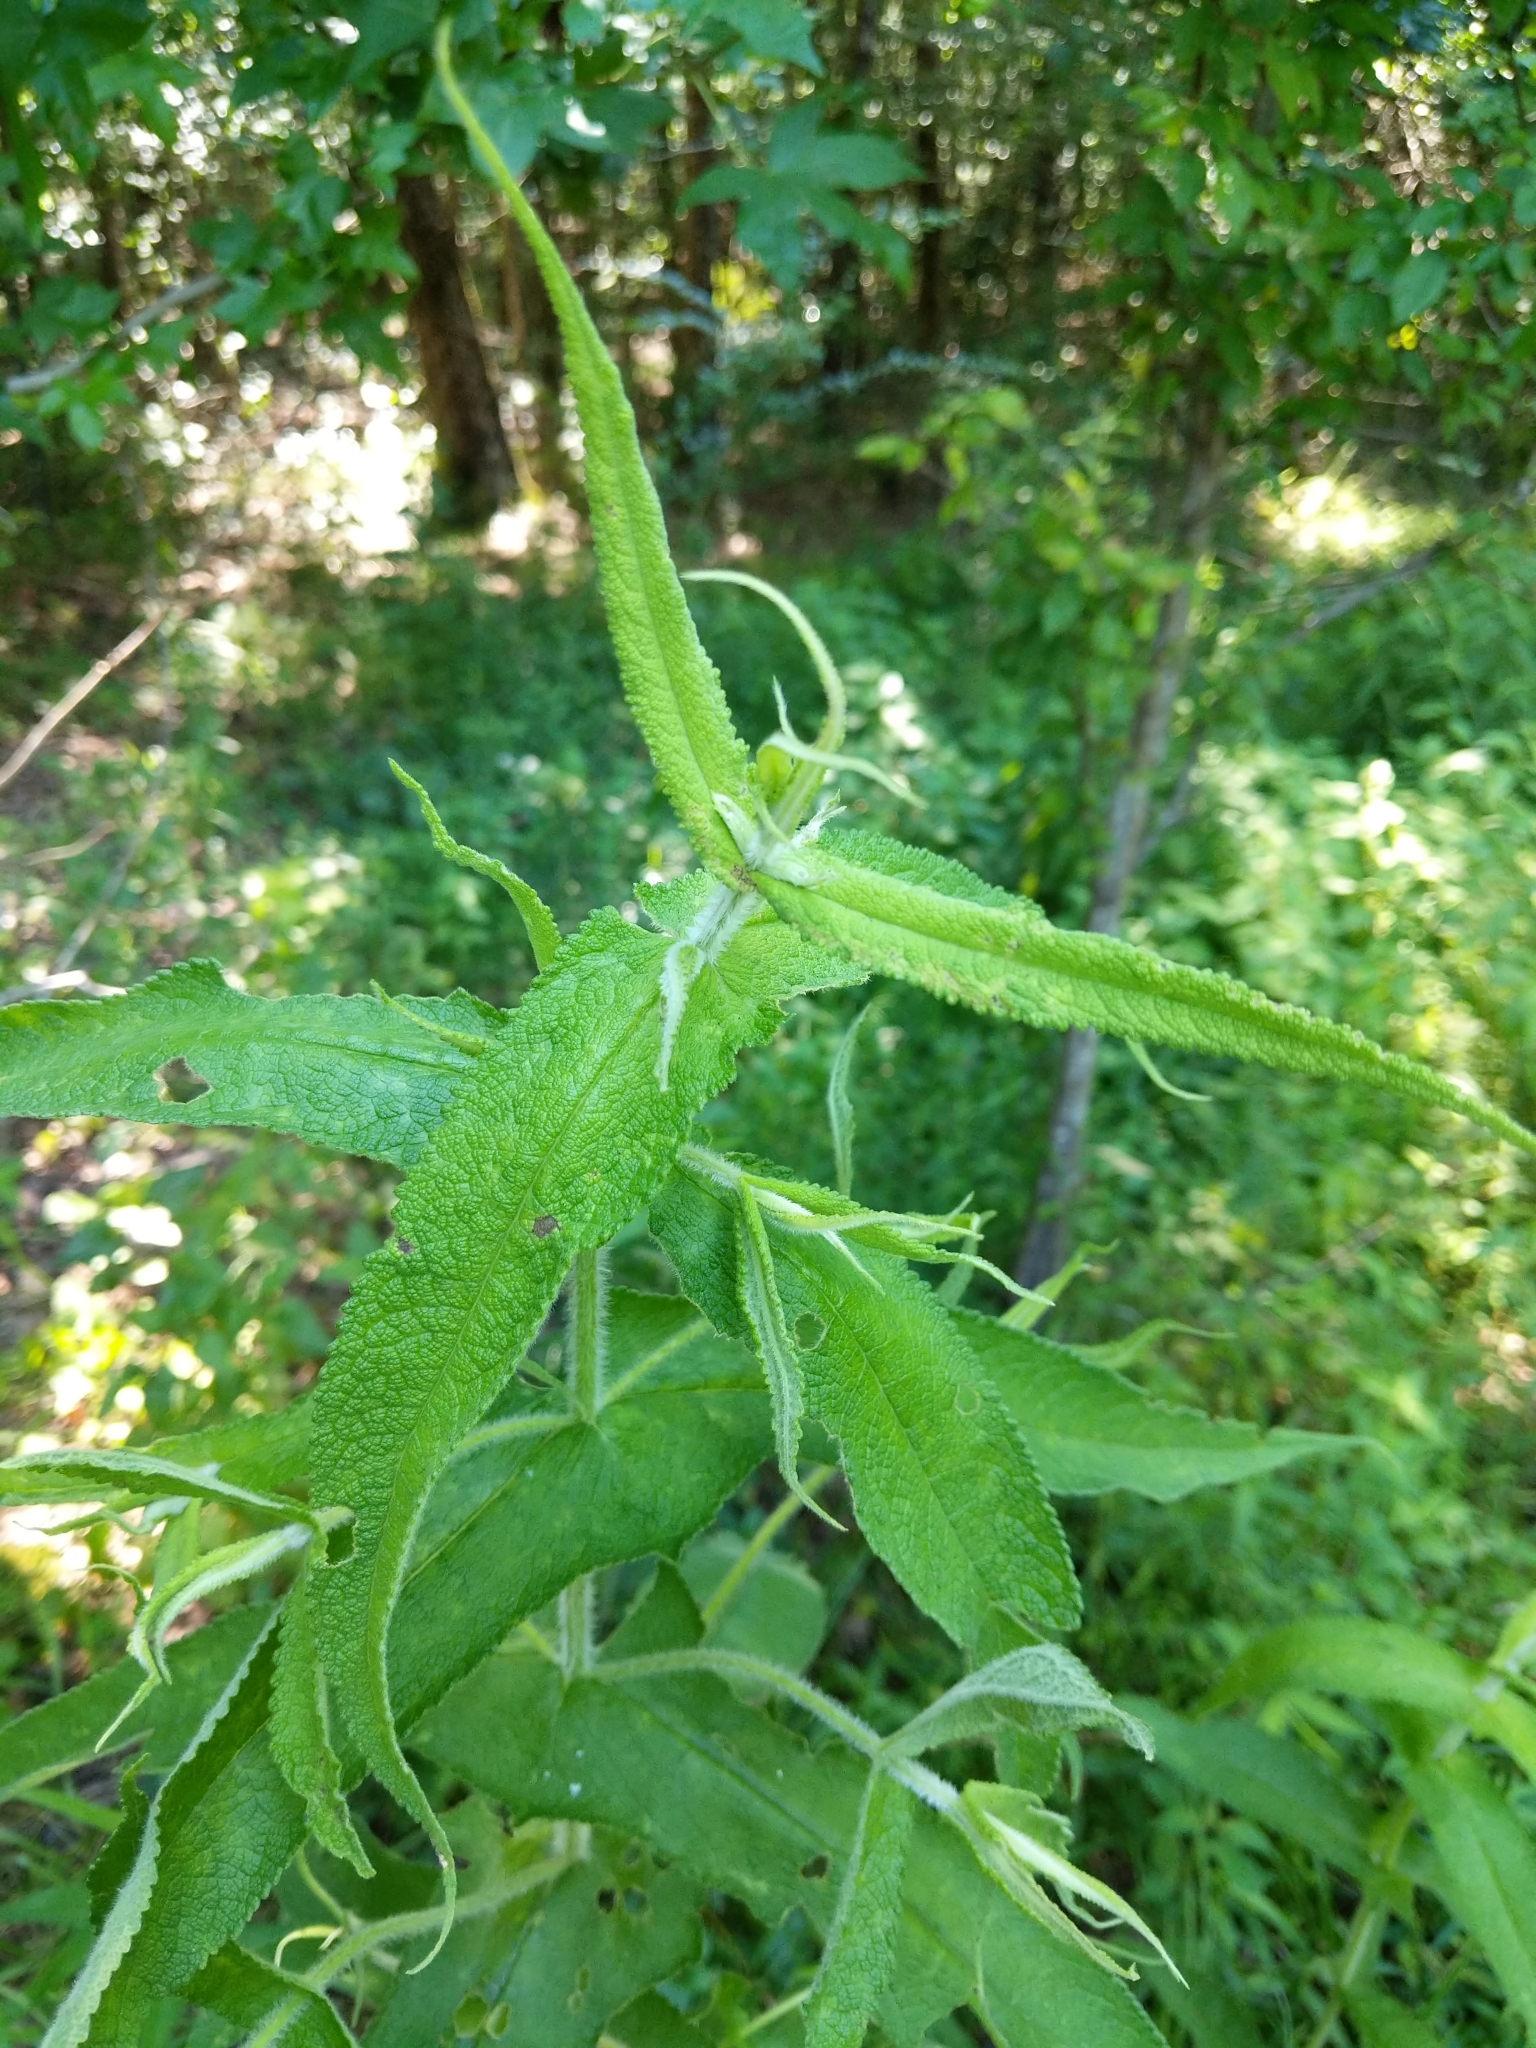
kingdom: Plantae
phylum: Tracheophyta
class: Magnoliopsida
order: Asterales
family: Asteraceae
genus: Eupatorium
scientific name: Eupatorium perfoliatum
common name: Boneset
